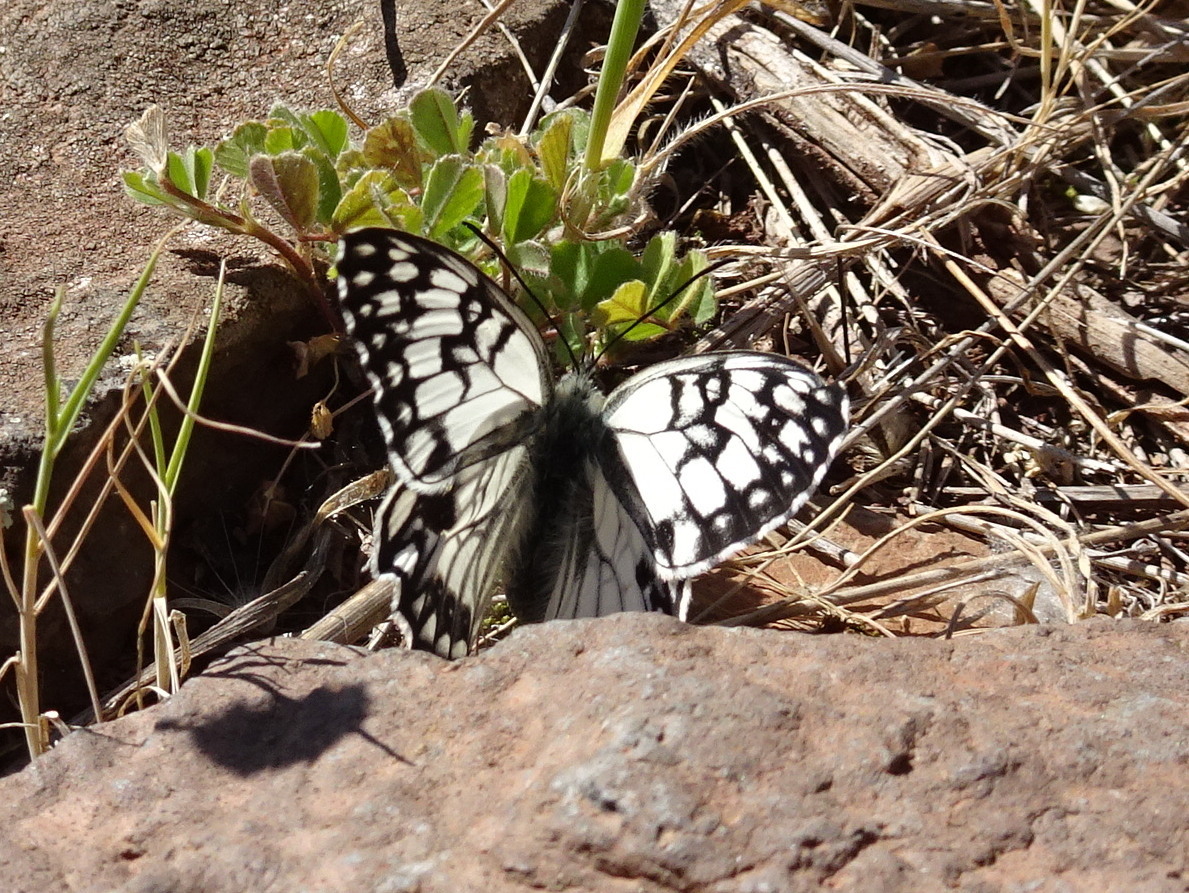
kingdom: Animalia
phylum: Arthropoda
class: Insecta
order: Lepidoptera
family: Nymphalidae
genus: Melanargia
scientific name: Melanargia occitanica
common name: Western marbled white
